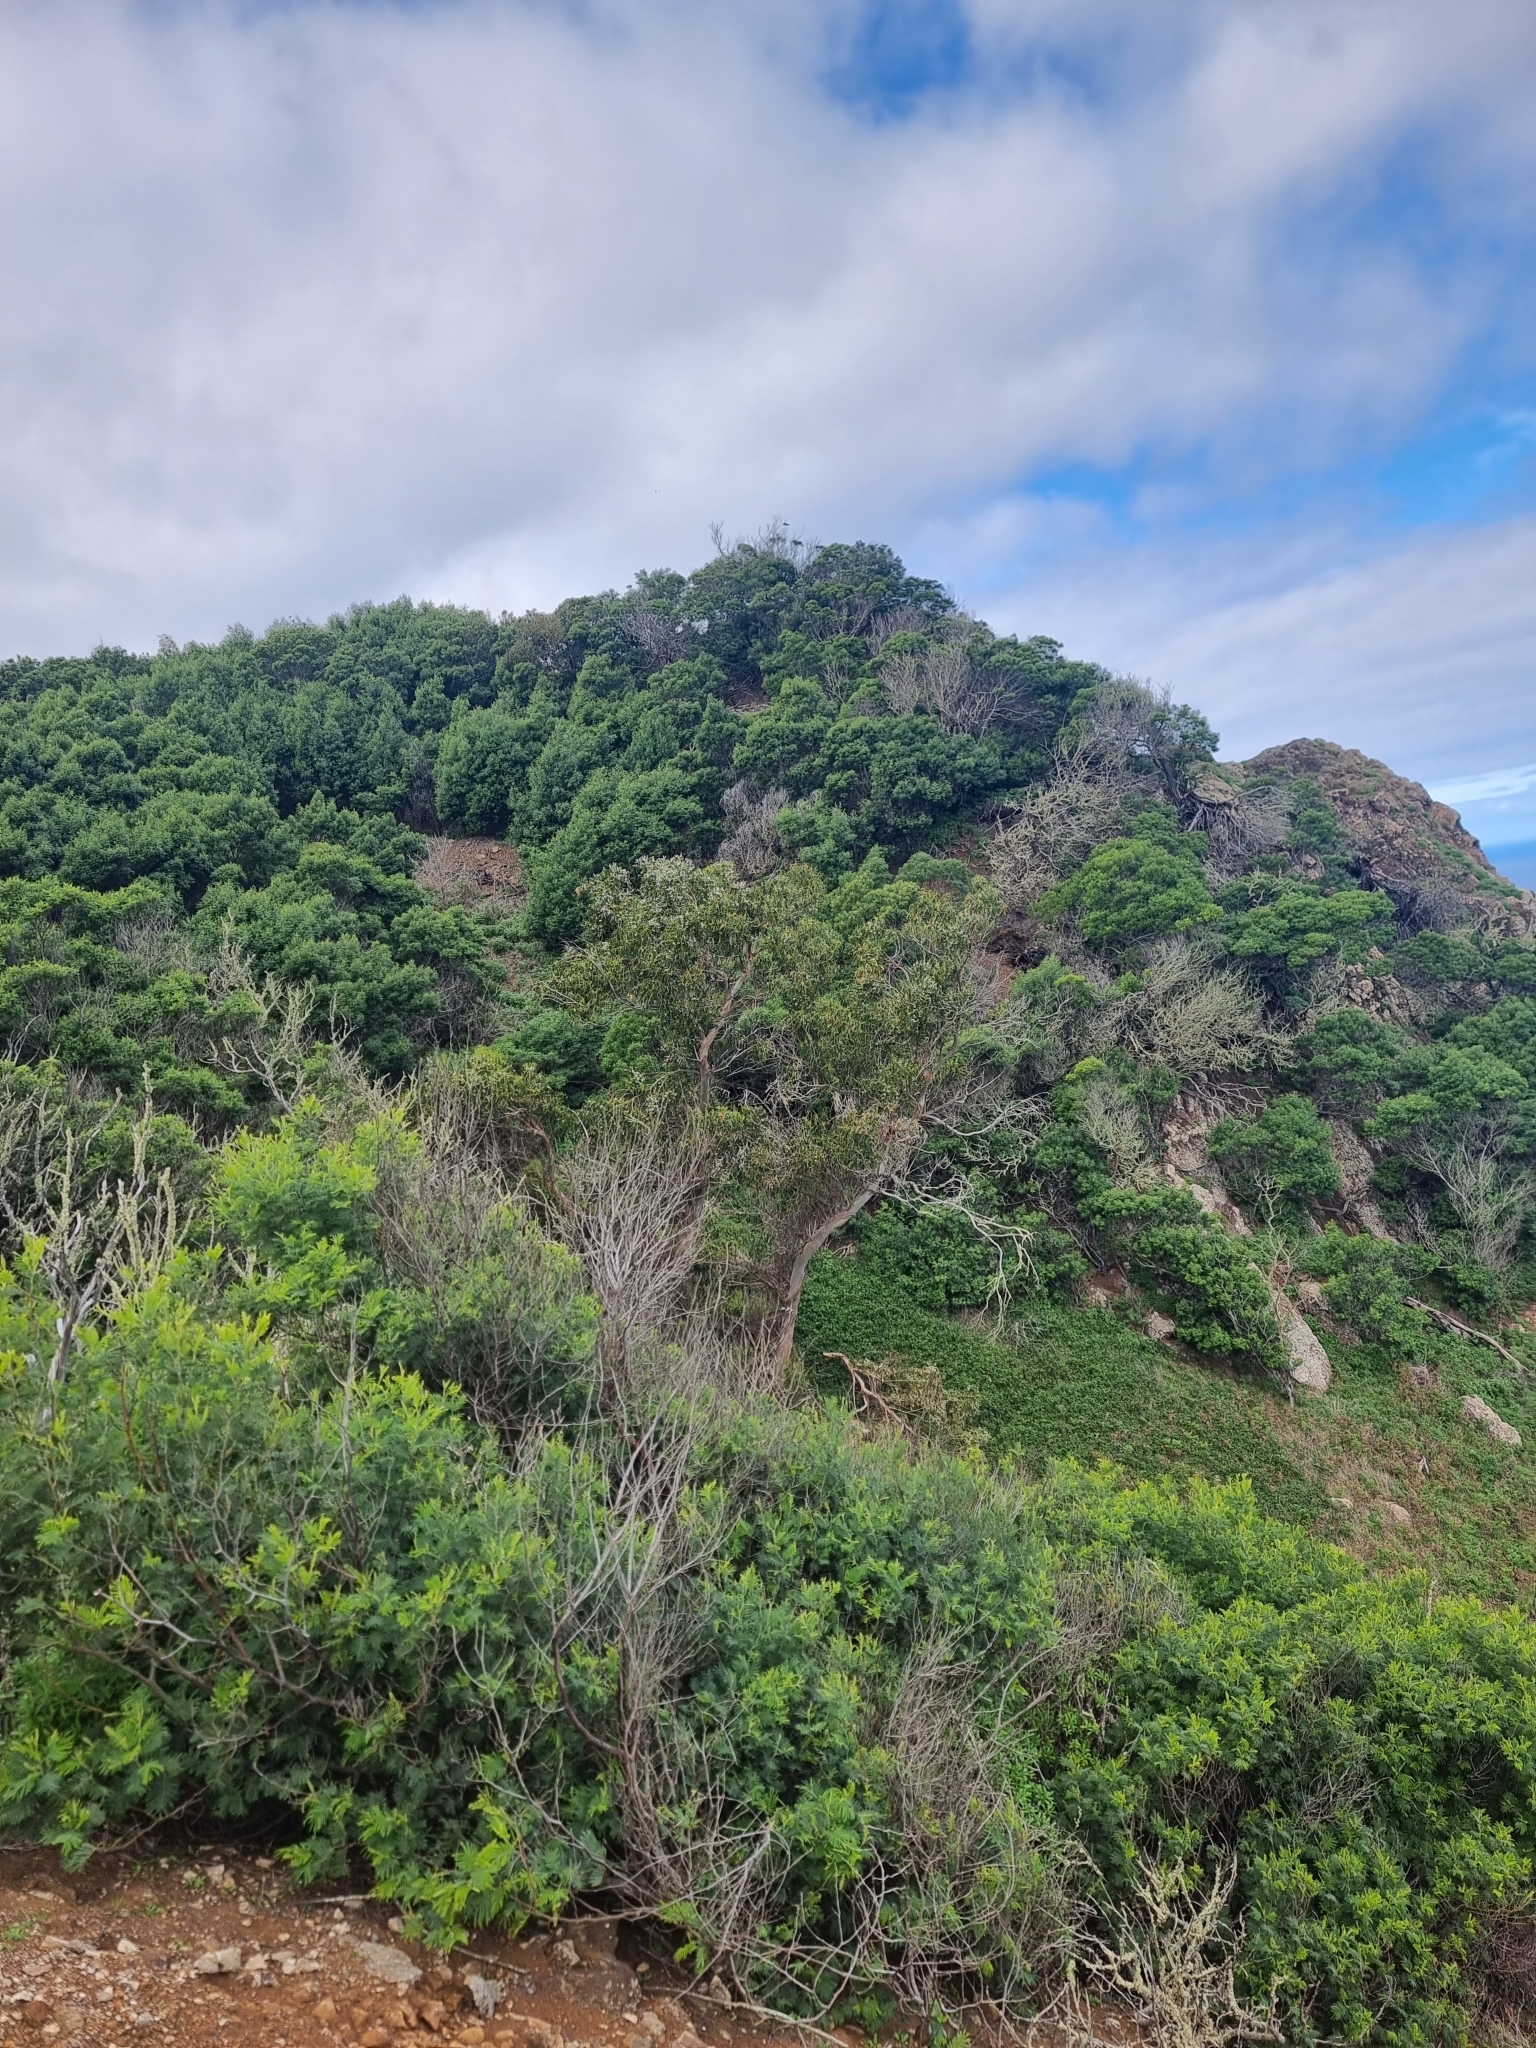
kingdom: Plantae
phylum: Tracheophyta
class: Magnoliopsida
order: Myrtales
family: Myrtaceae
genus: Eucalyptus
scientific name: Eucalyptus globulus
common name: Southern blue-gum
